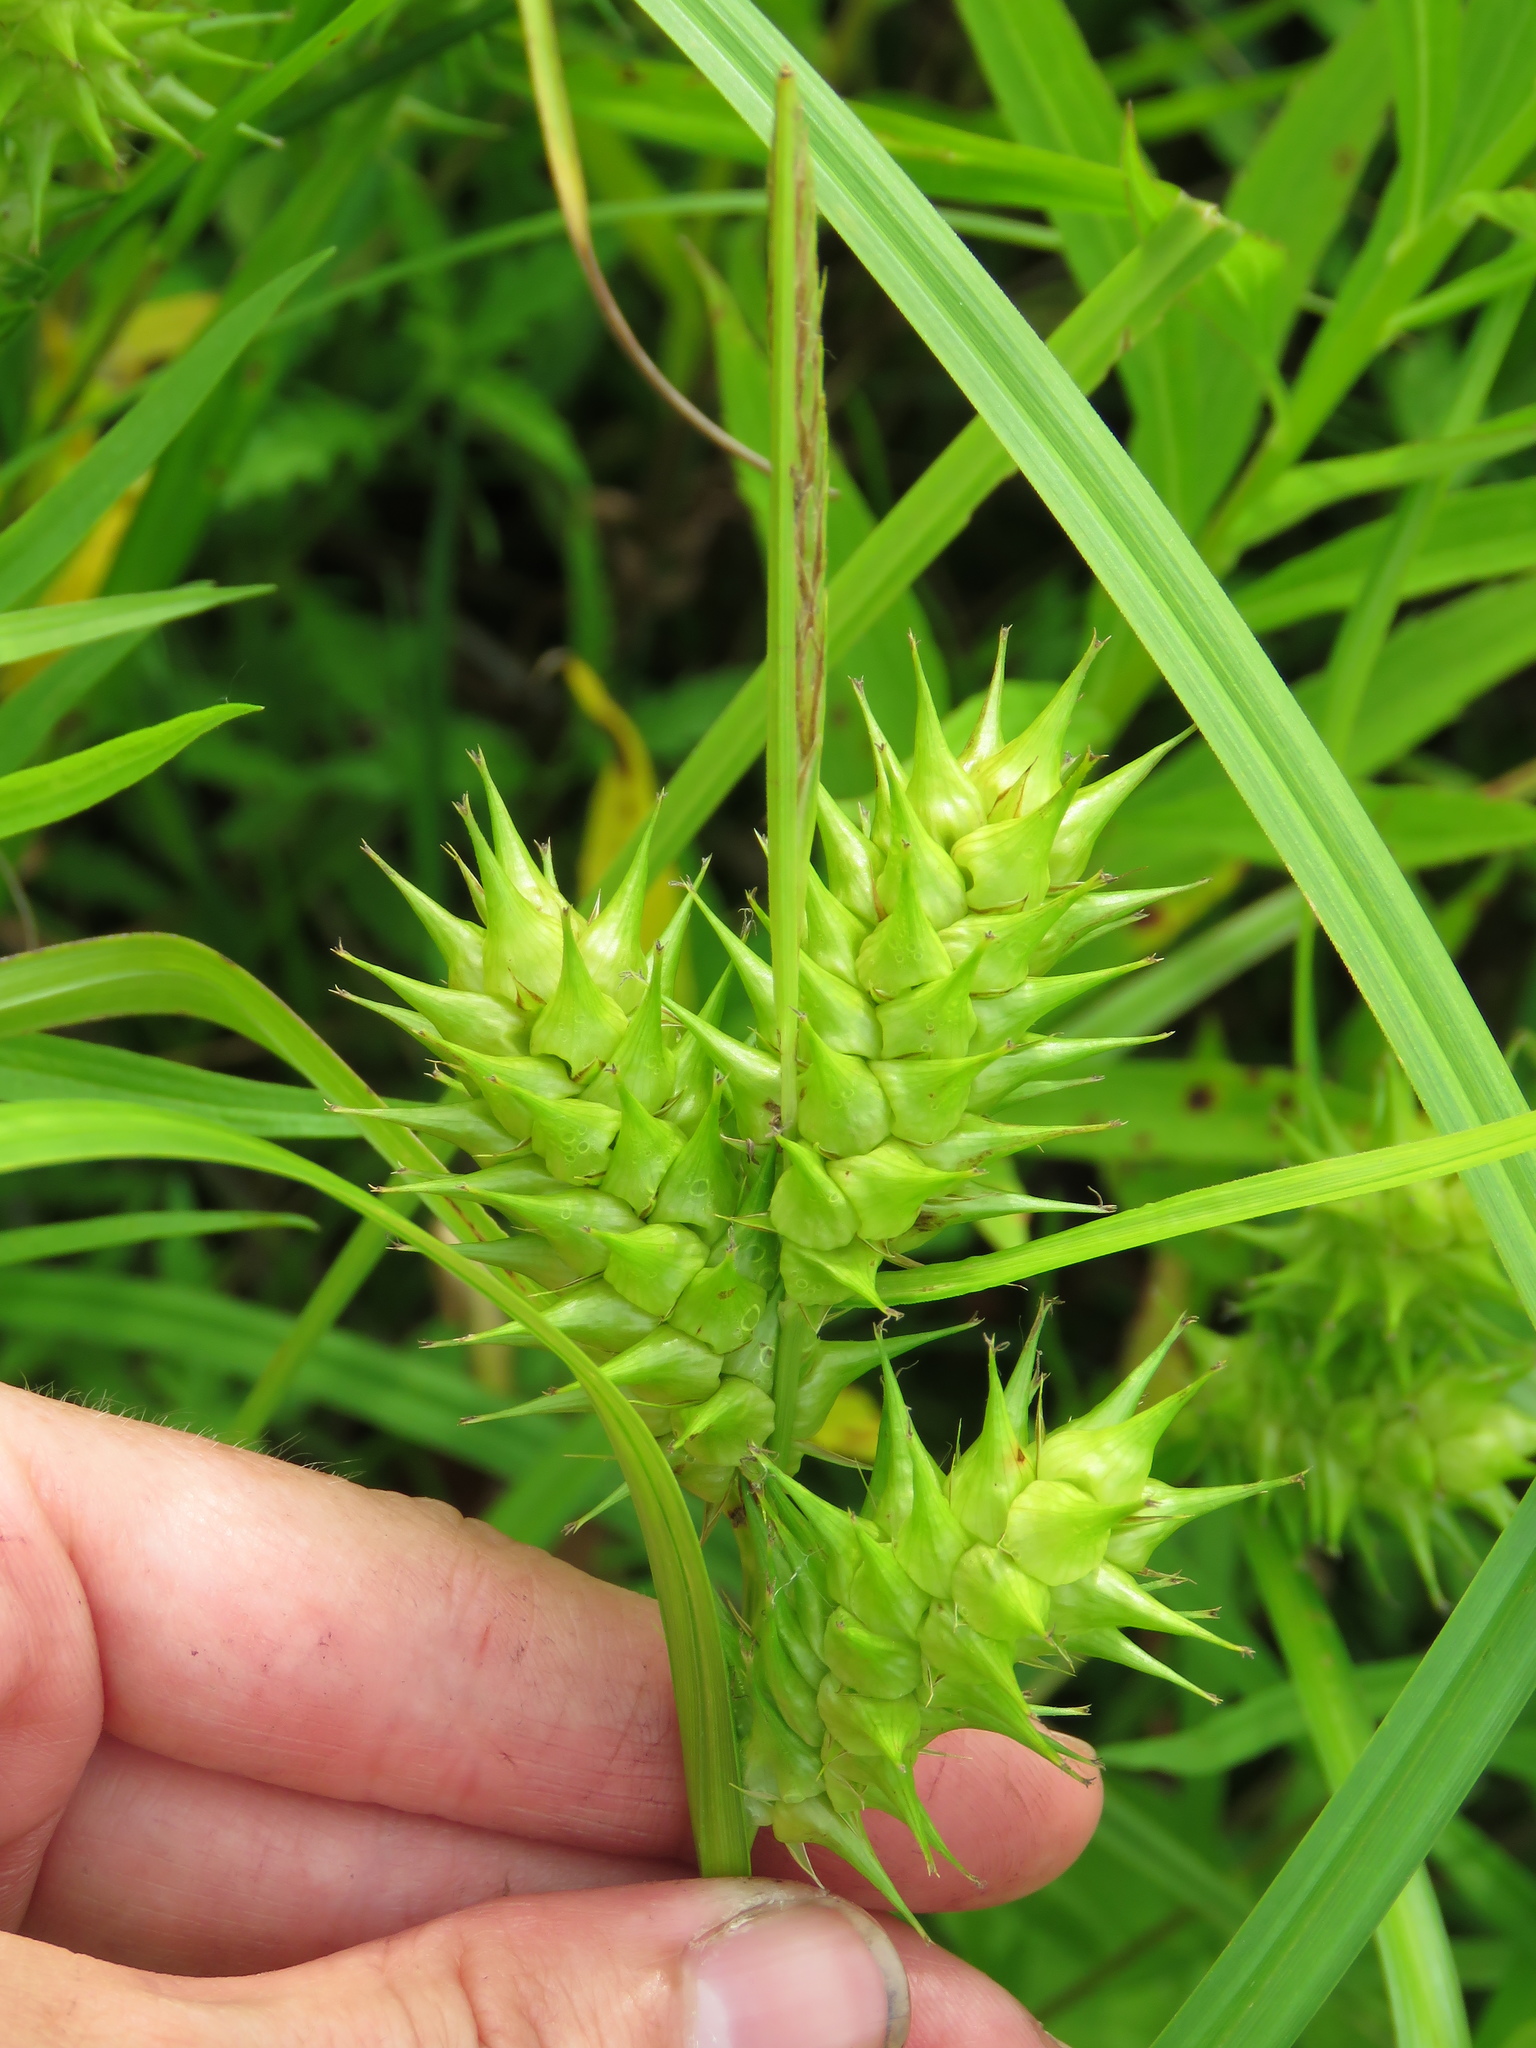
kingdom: Plantae
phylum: Tracheophyta
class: Liliopsida
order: Poales
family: Cyperaceae
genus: Carex
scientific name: Carex lupulina
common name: Hop sedge
